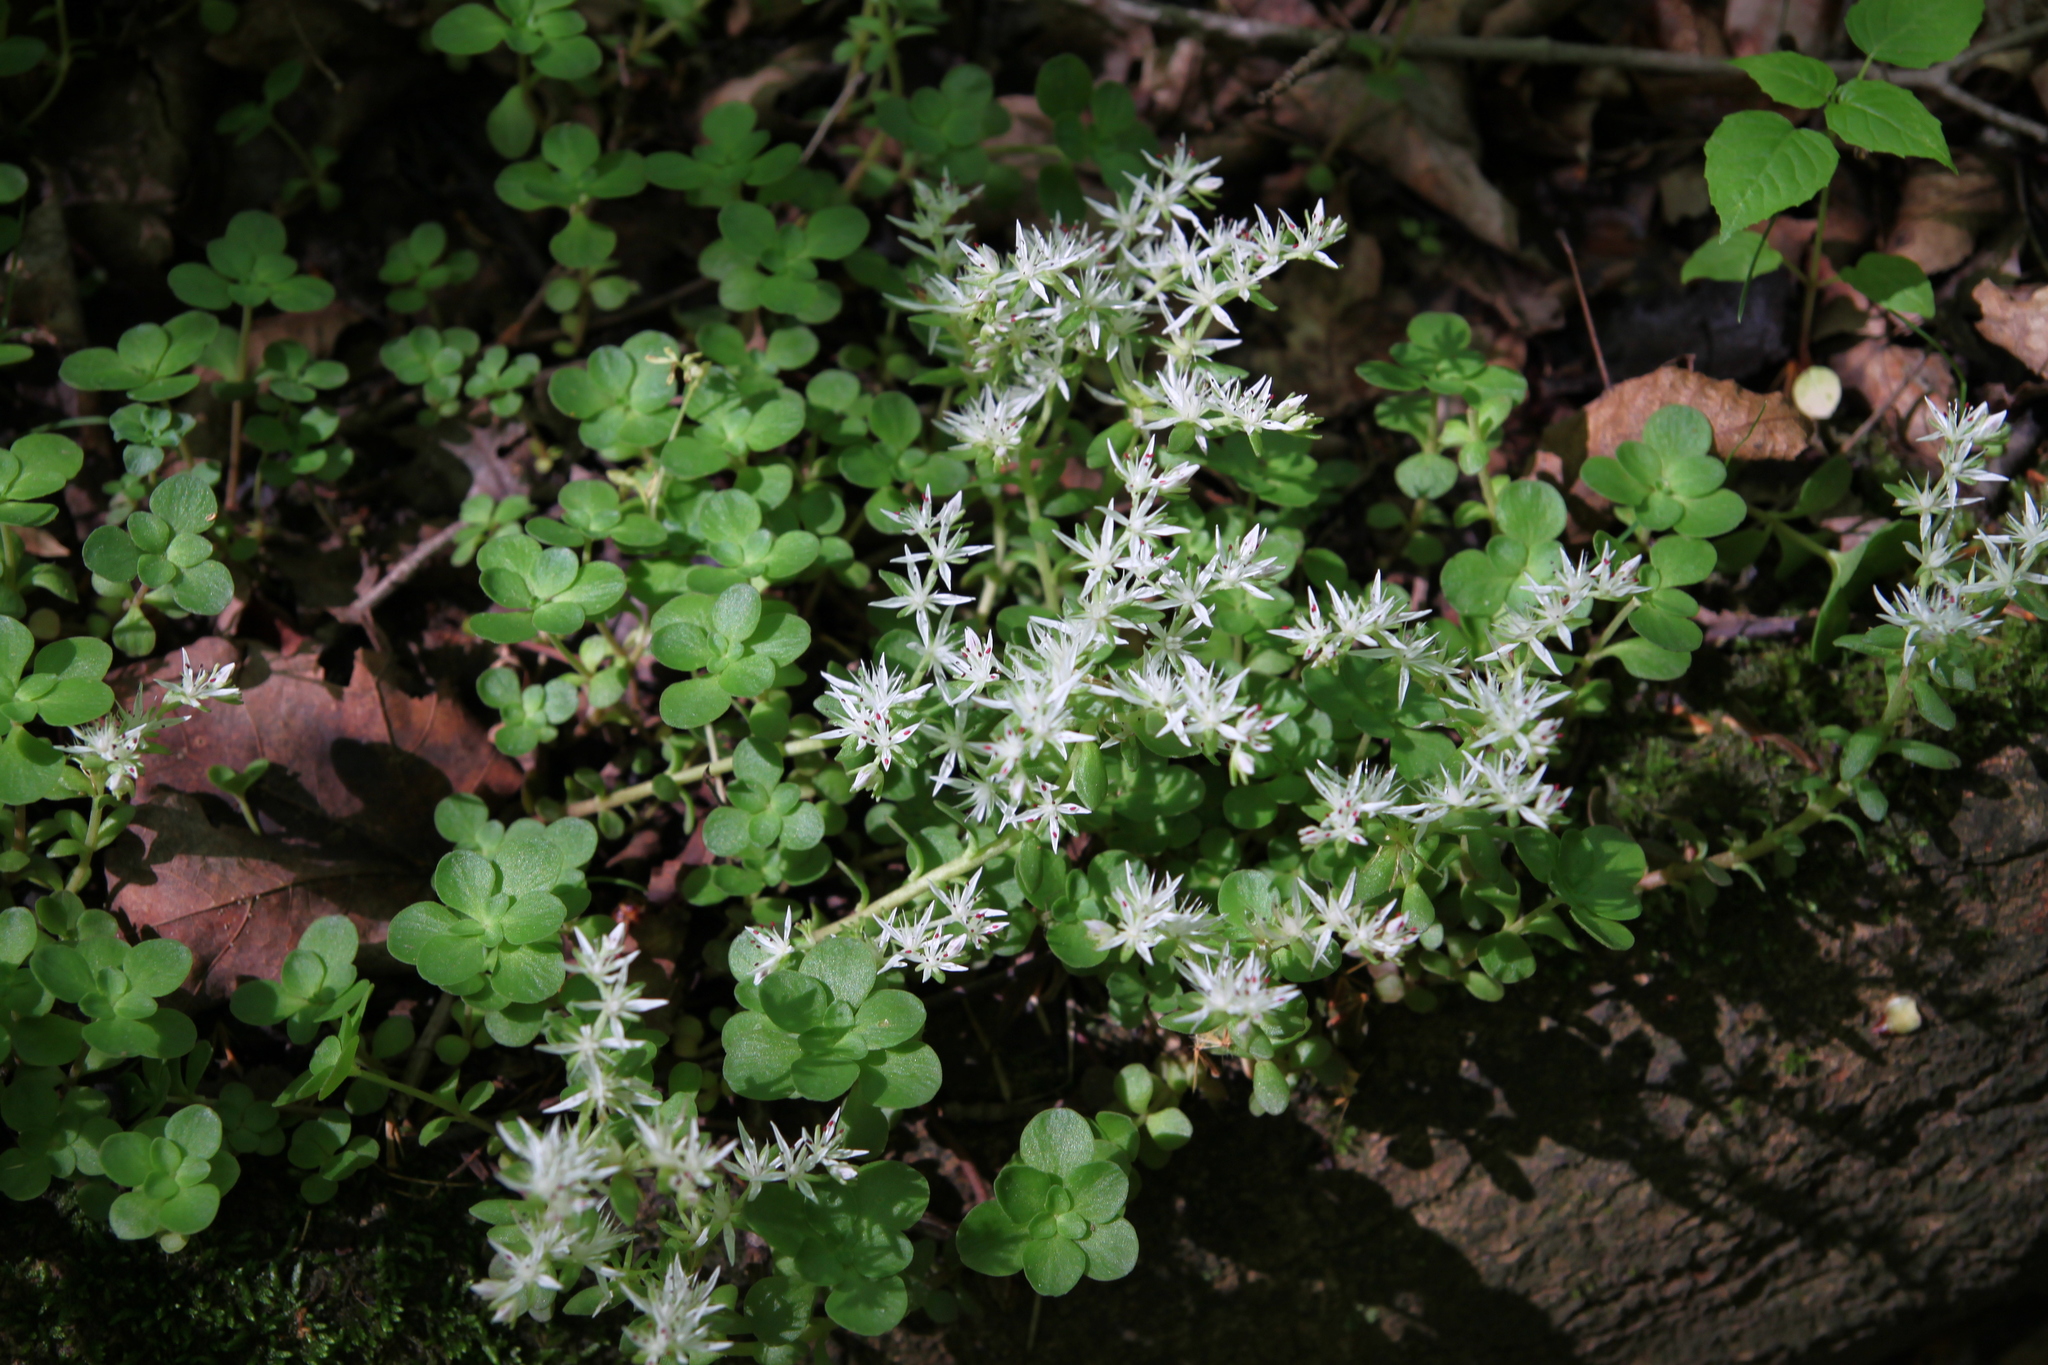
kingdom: Plantae
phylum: Tracheophyta
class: Magnoliopsida
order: Saxifragales
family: Crassulaceae
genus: Sedum
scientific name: Sedum ternatum
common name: Wild stonecrop
